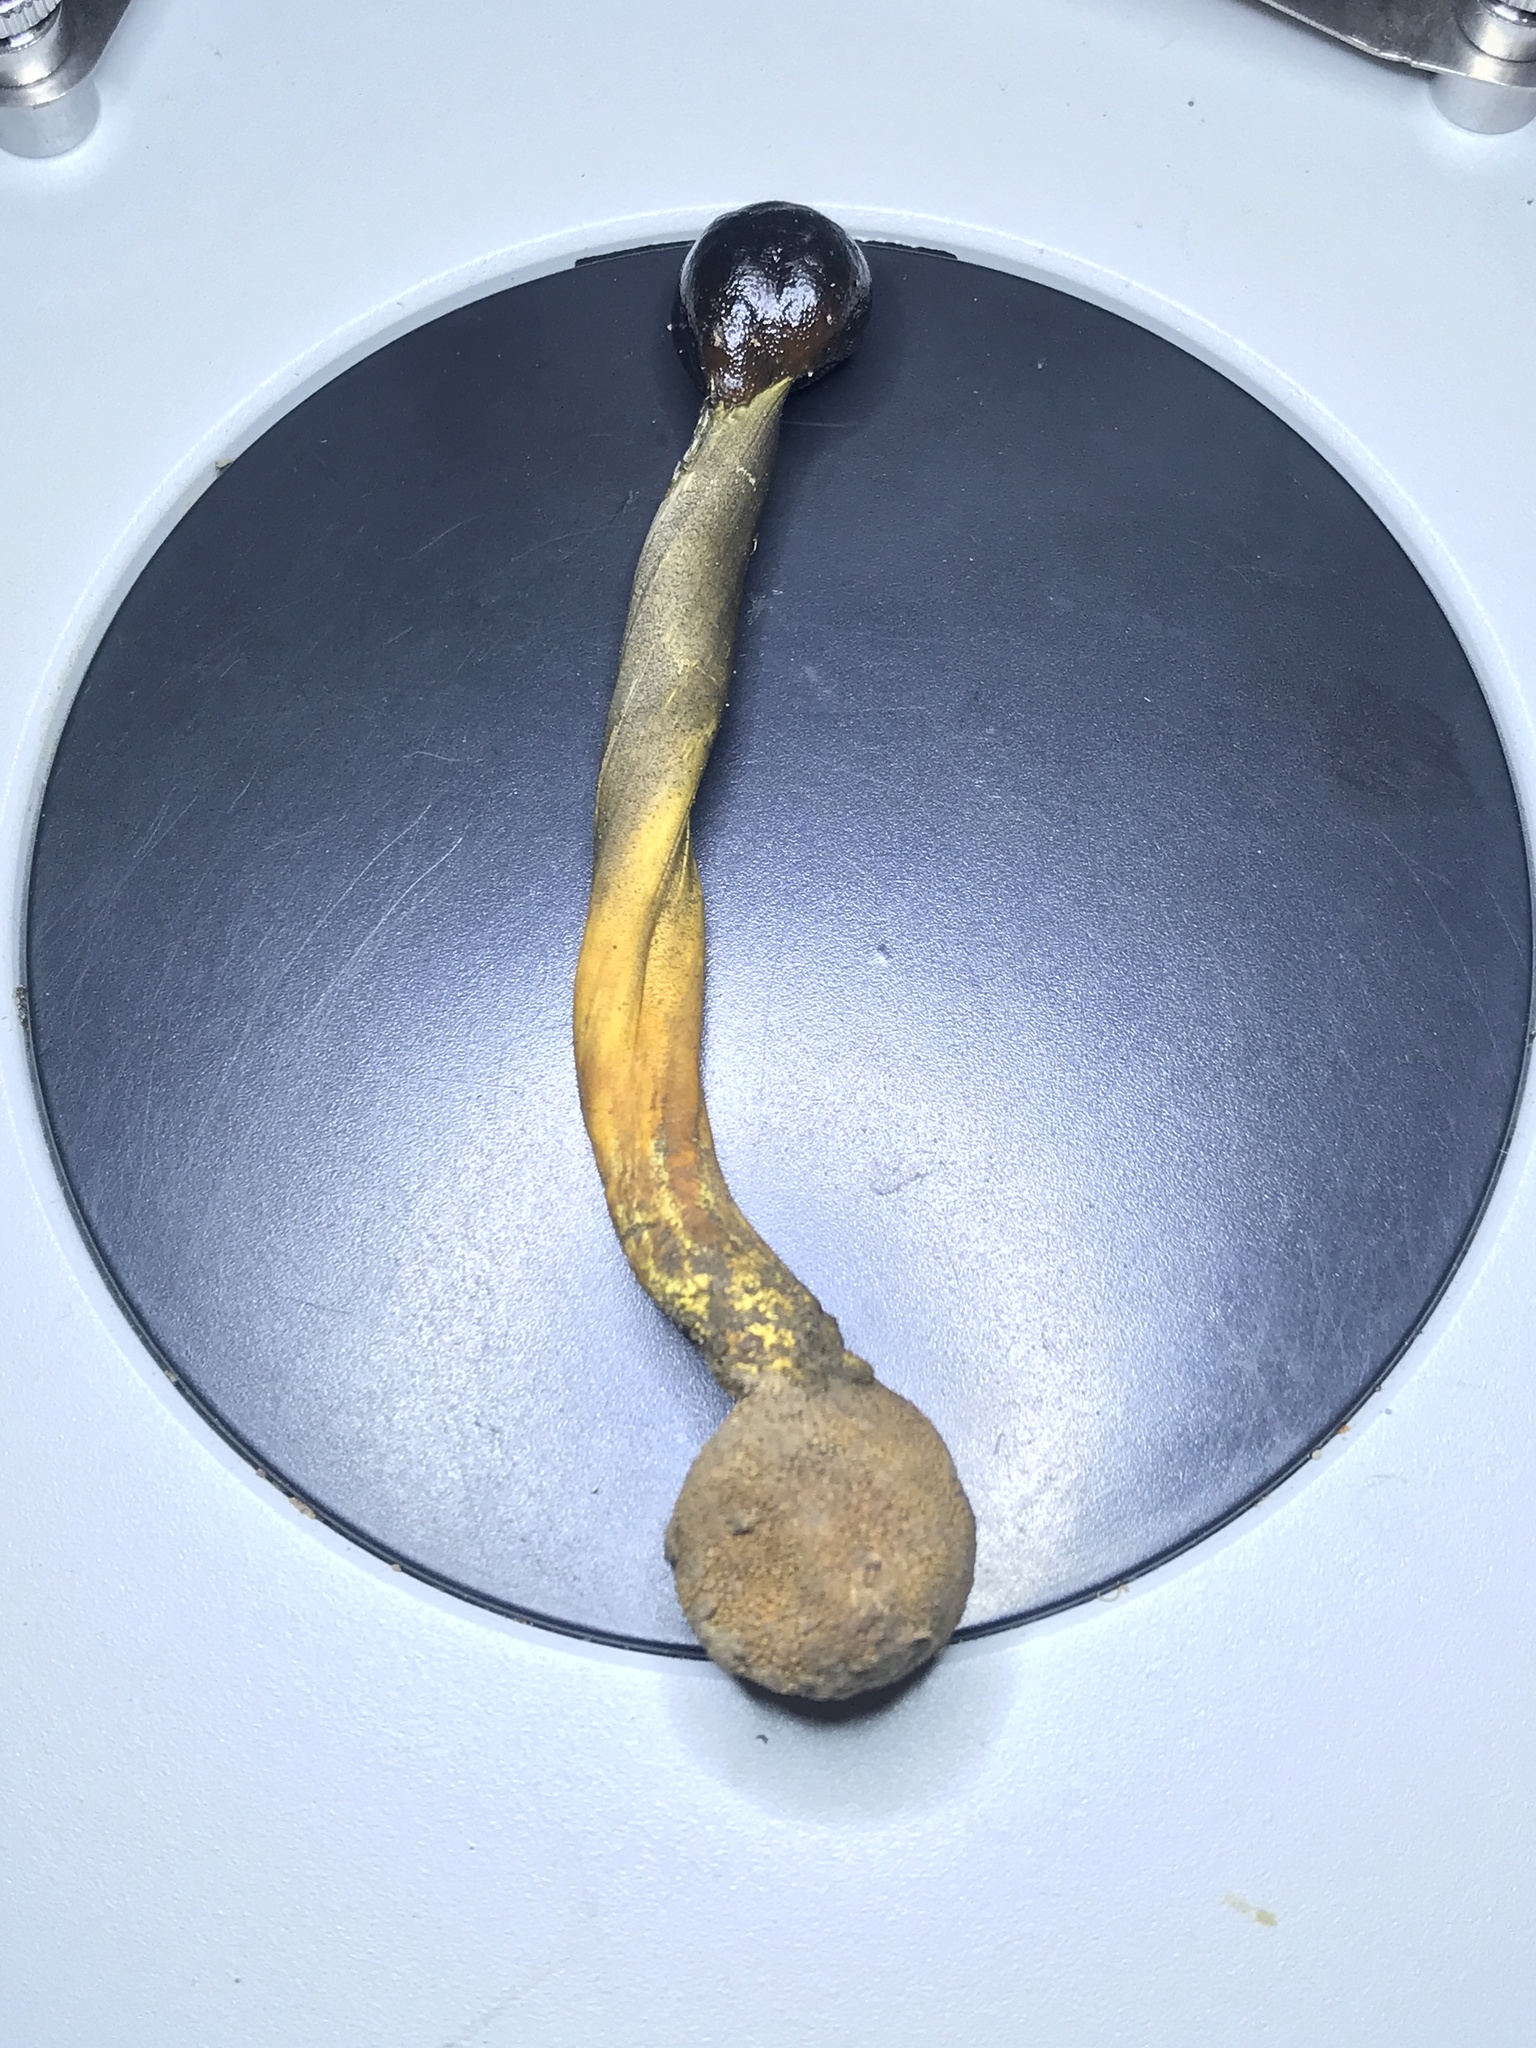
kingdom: Fungi
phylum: Ascomycota
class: Sordariomycetes
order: Hypocreales
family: Ophiocordycipitaceae
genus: Tolypocladium
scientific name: Tolypocladium longisegmentatum
